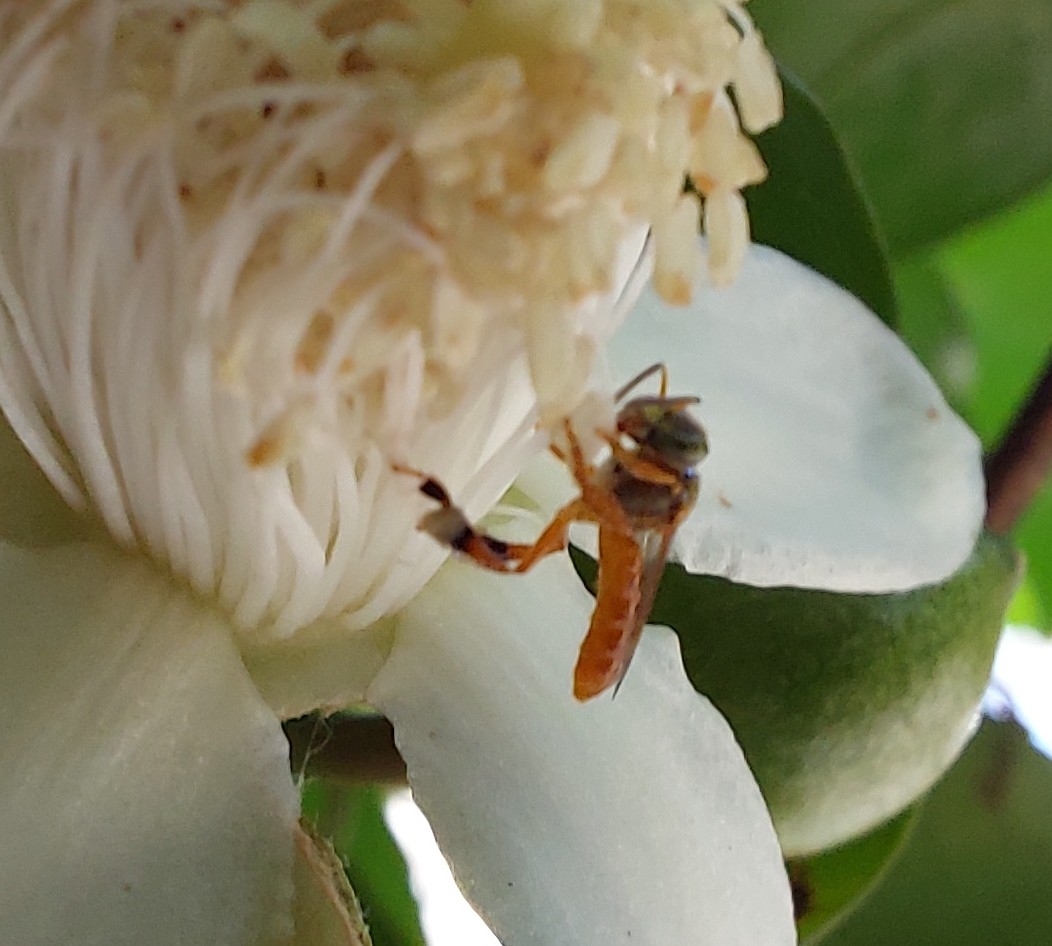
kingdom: Animalia
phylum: Arthropoda
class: Insecta
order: Hymenoptera
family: Apidae
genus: Tetragonisca
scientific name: Tetragonisca angustula
